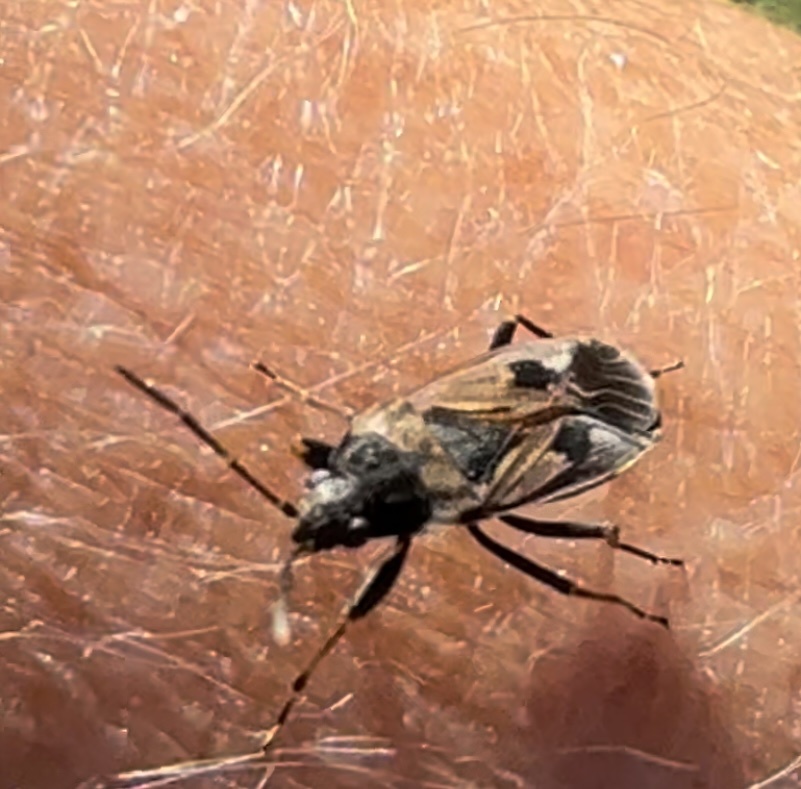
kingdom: Animalia
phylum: Arthropoda
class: Insecta
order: Hemiptera
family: Rhyparochromidae
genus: Rhyparochromus
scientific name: Rhyparochromus vulgaris
